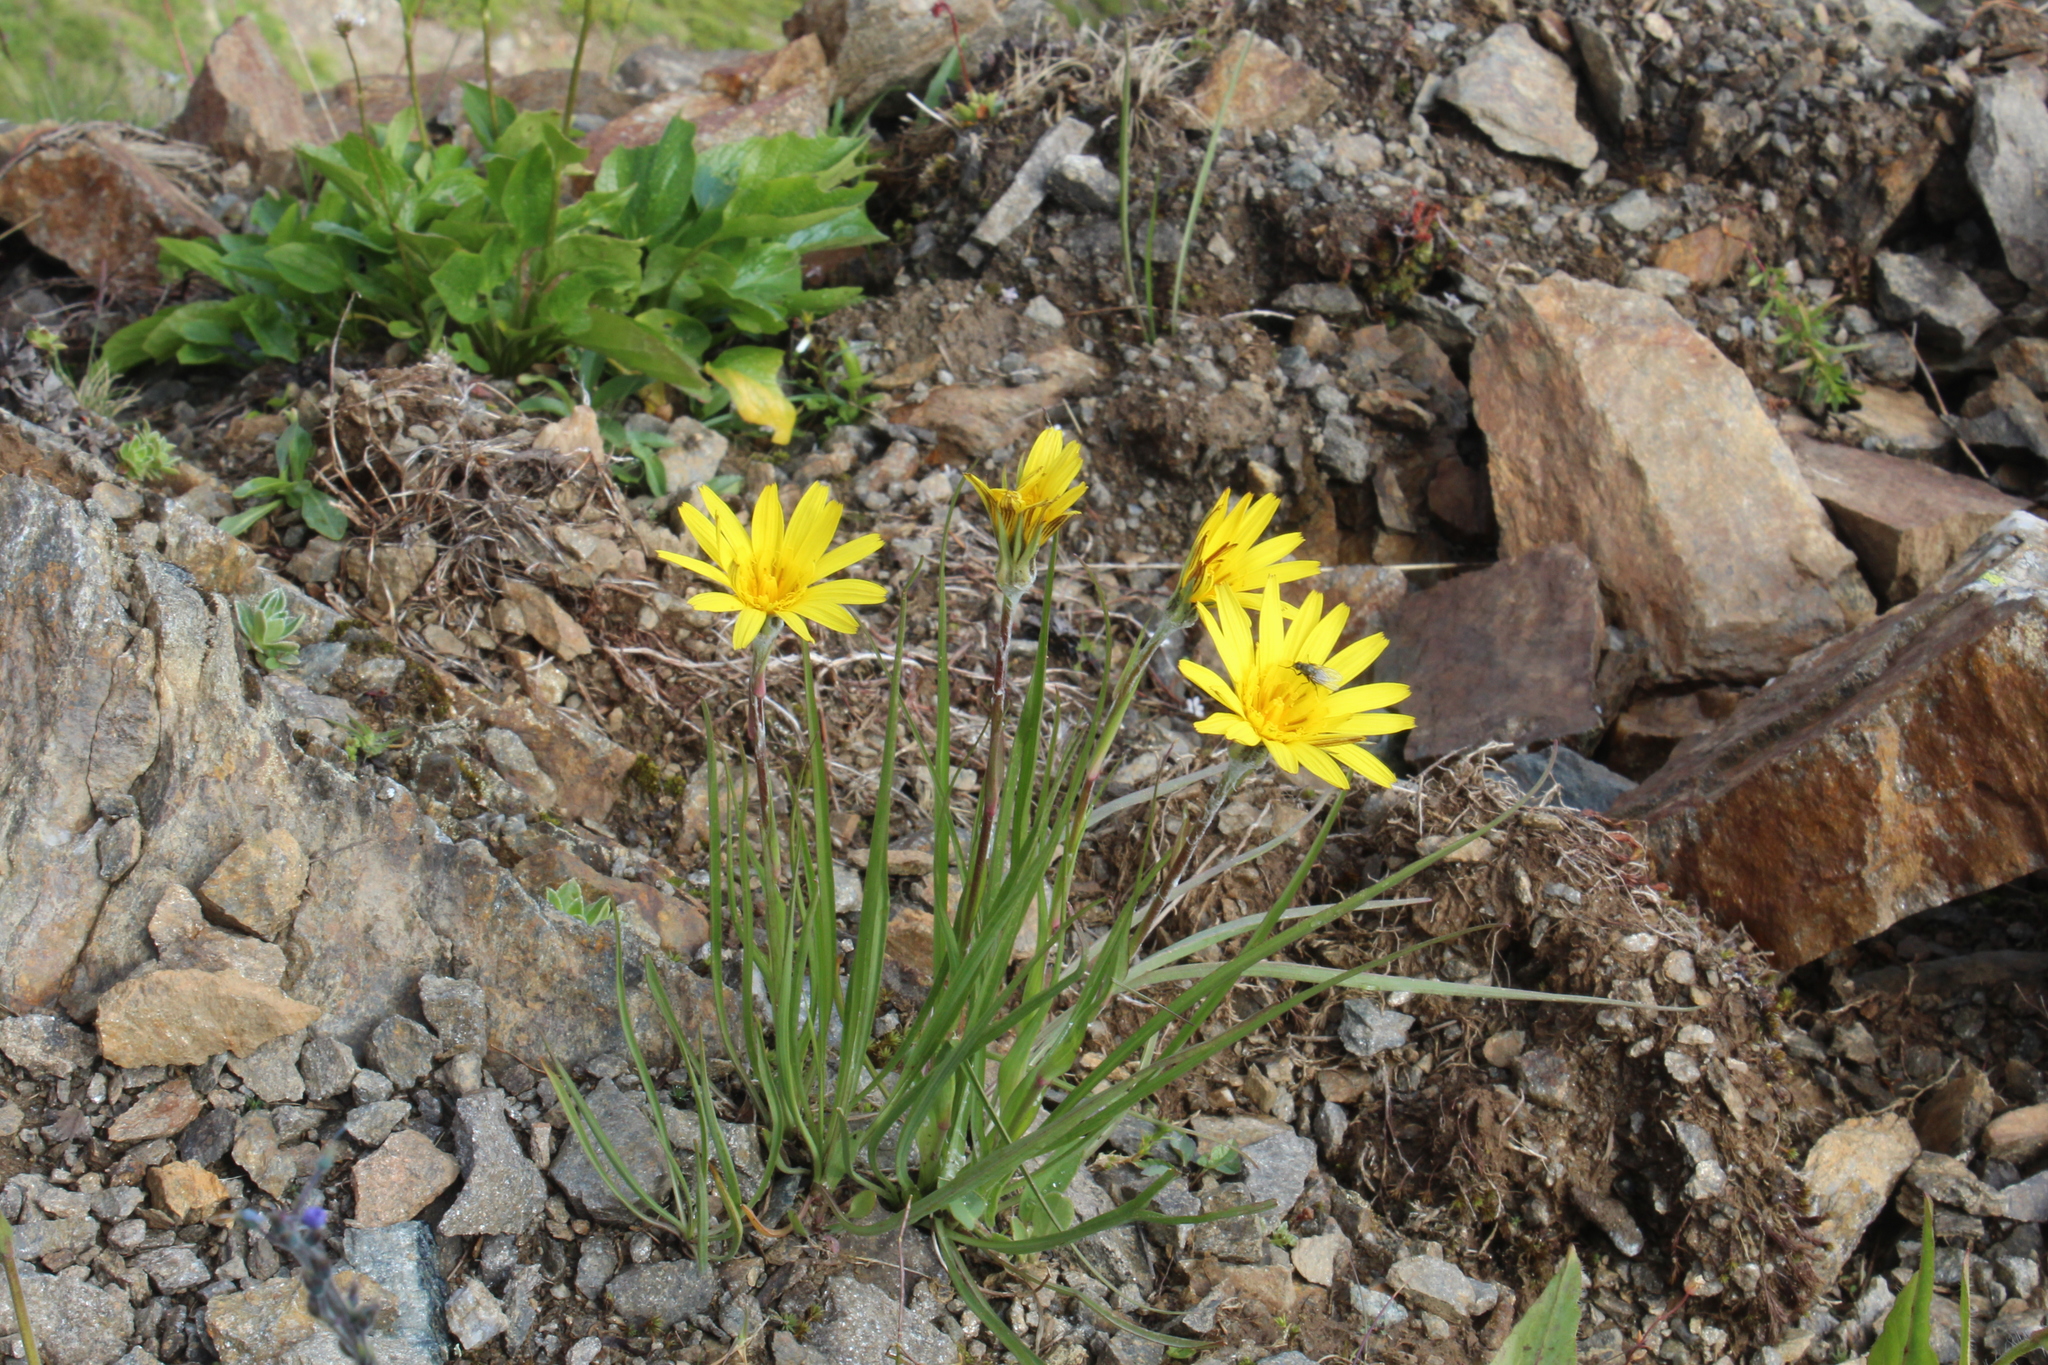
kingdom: Plantae
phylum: Tracheophyta
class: Magnoliopsida
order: Asterales
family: Asteraceae
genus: Tragopogon
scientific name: Tragopogon reticulatus
